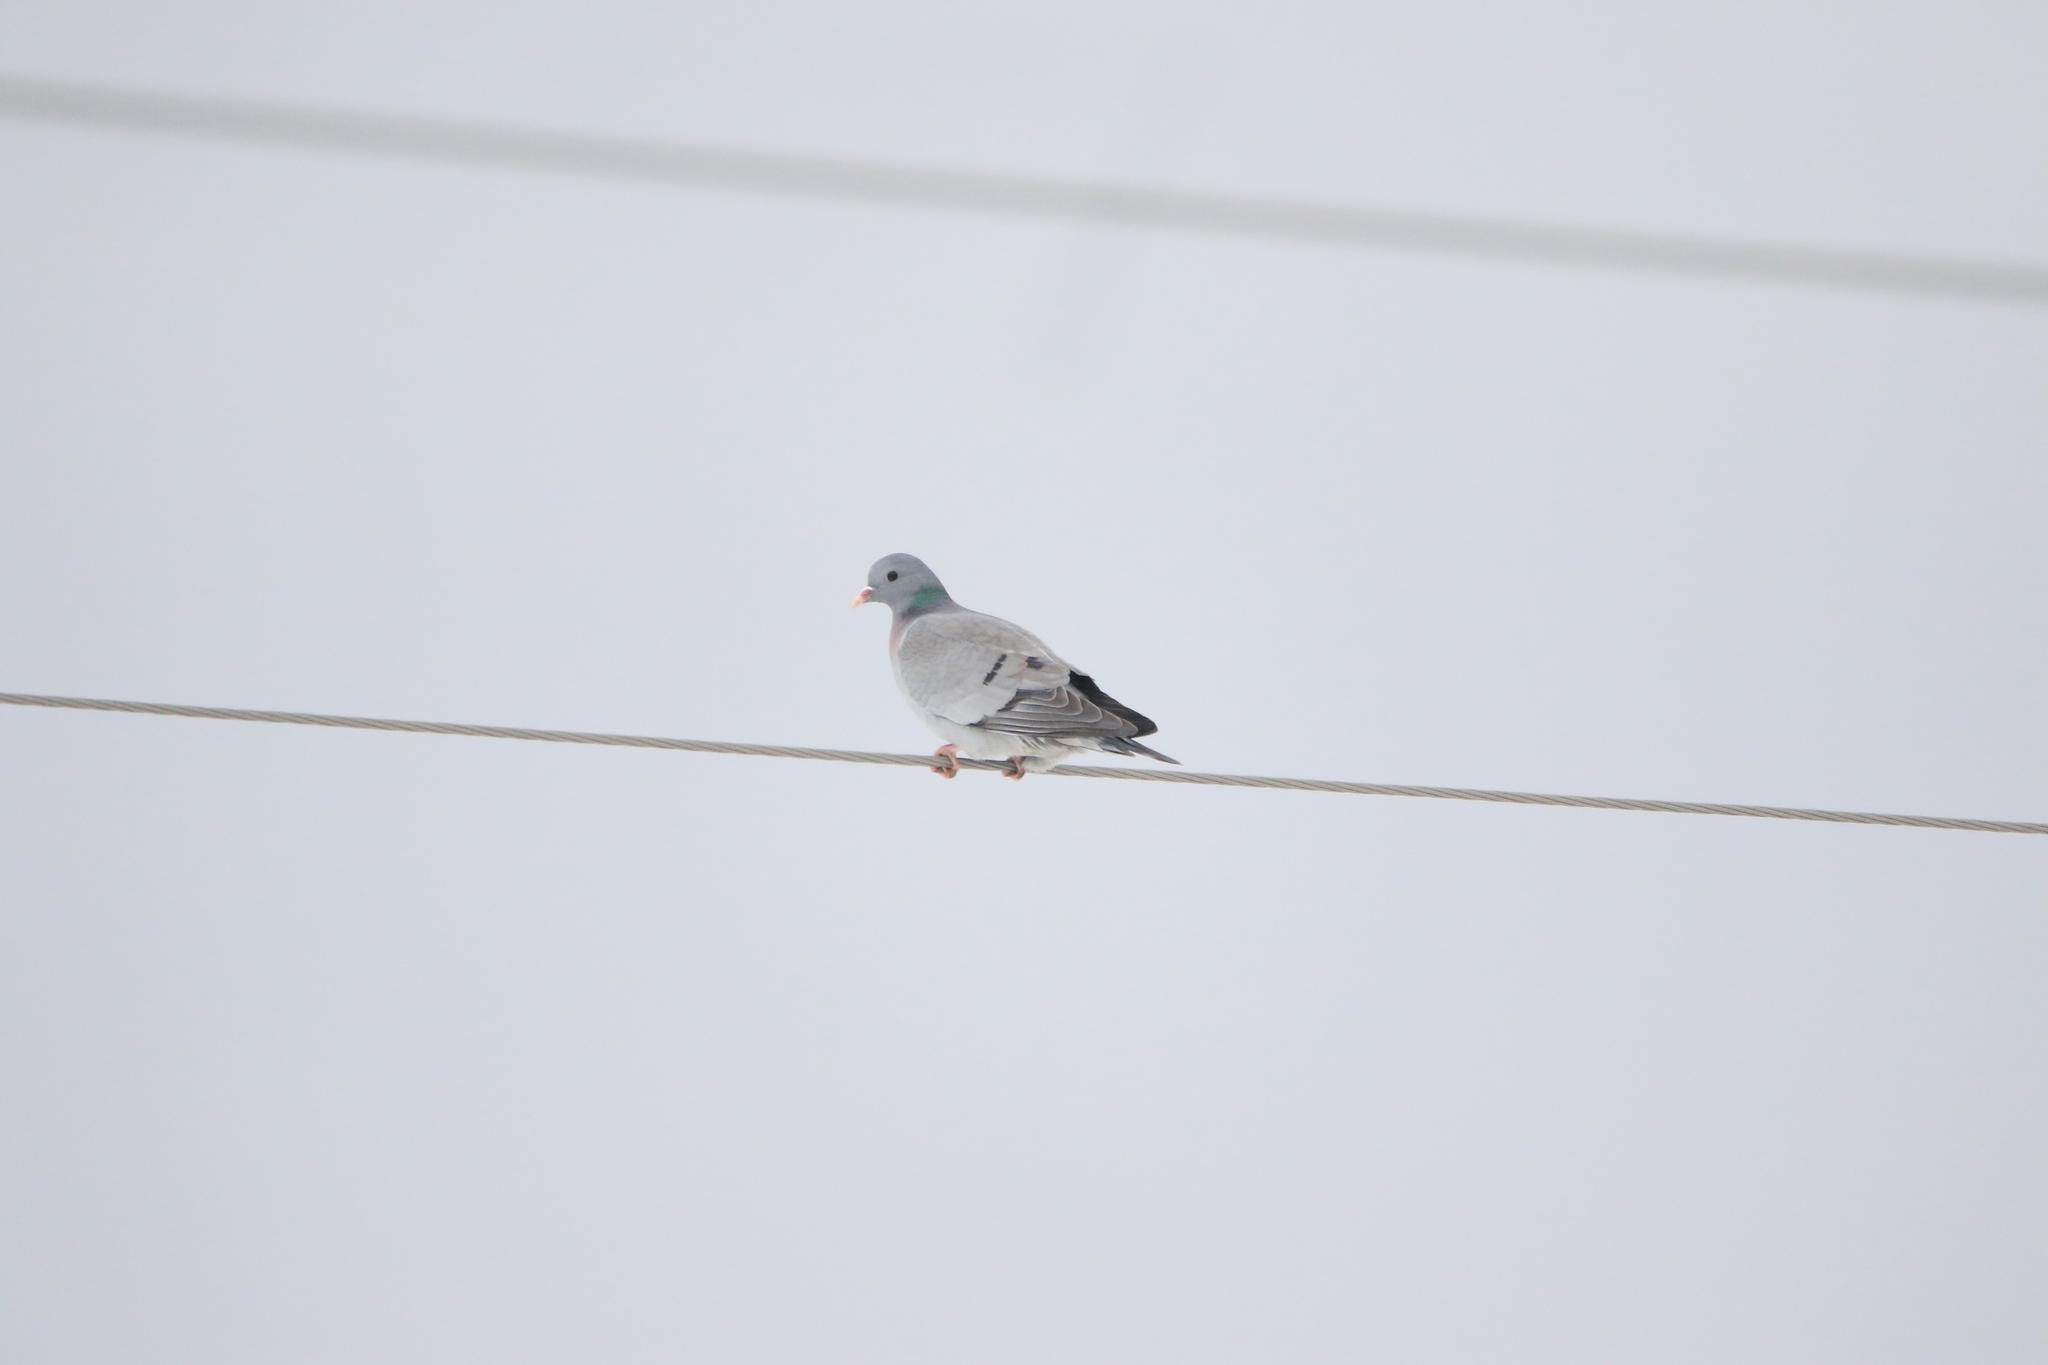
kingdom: Animalia
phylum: Chordata
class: Aves
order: Columbiformes
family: Columbidae
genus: Columba
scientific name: Columba oenas
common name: Stock dove
